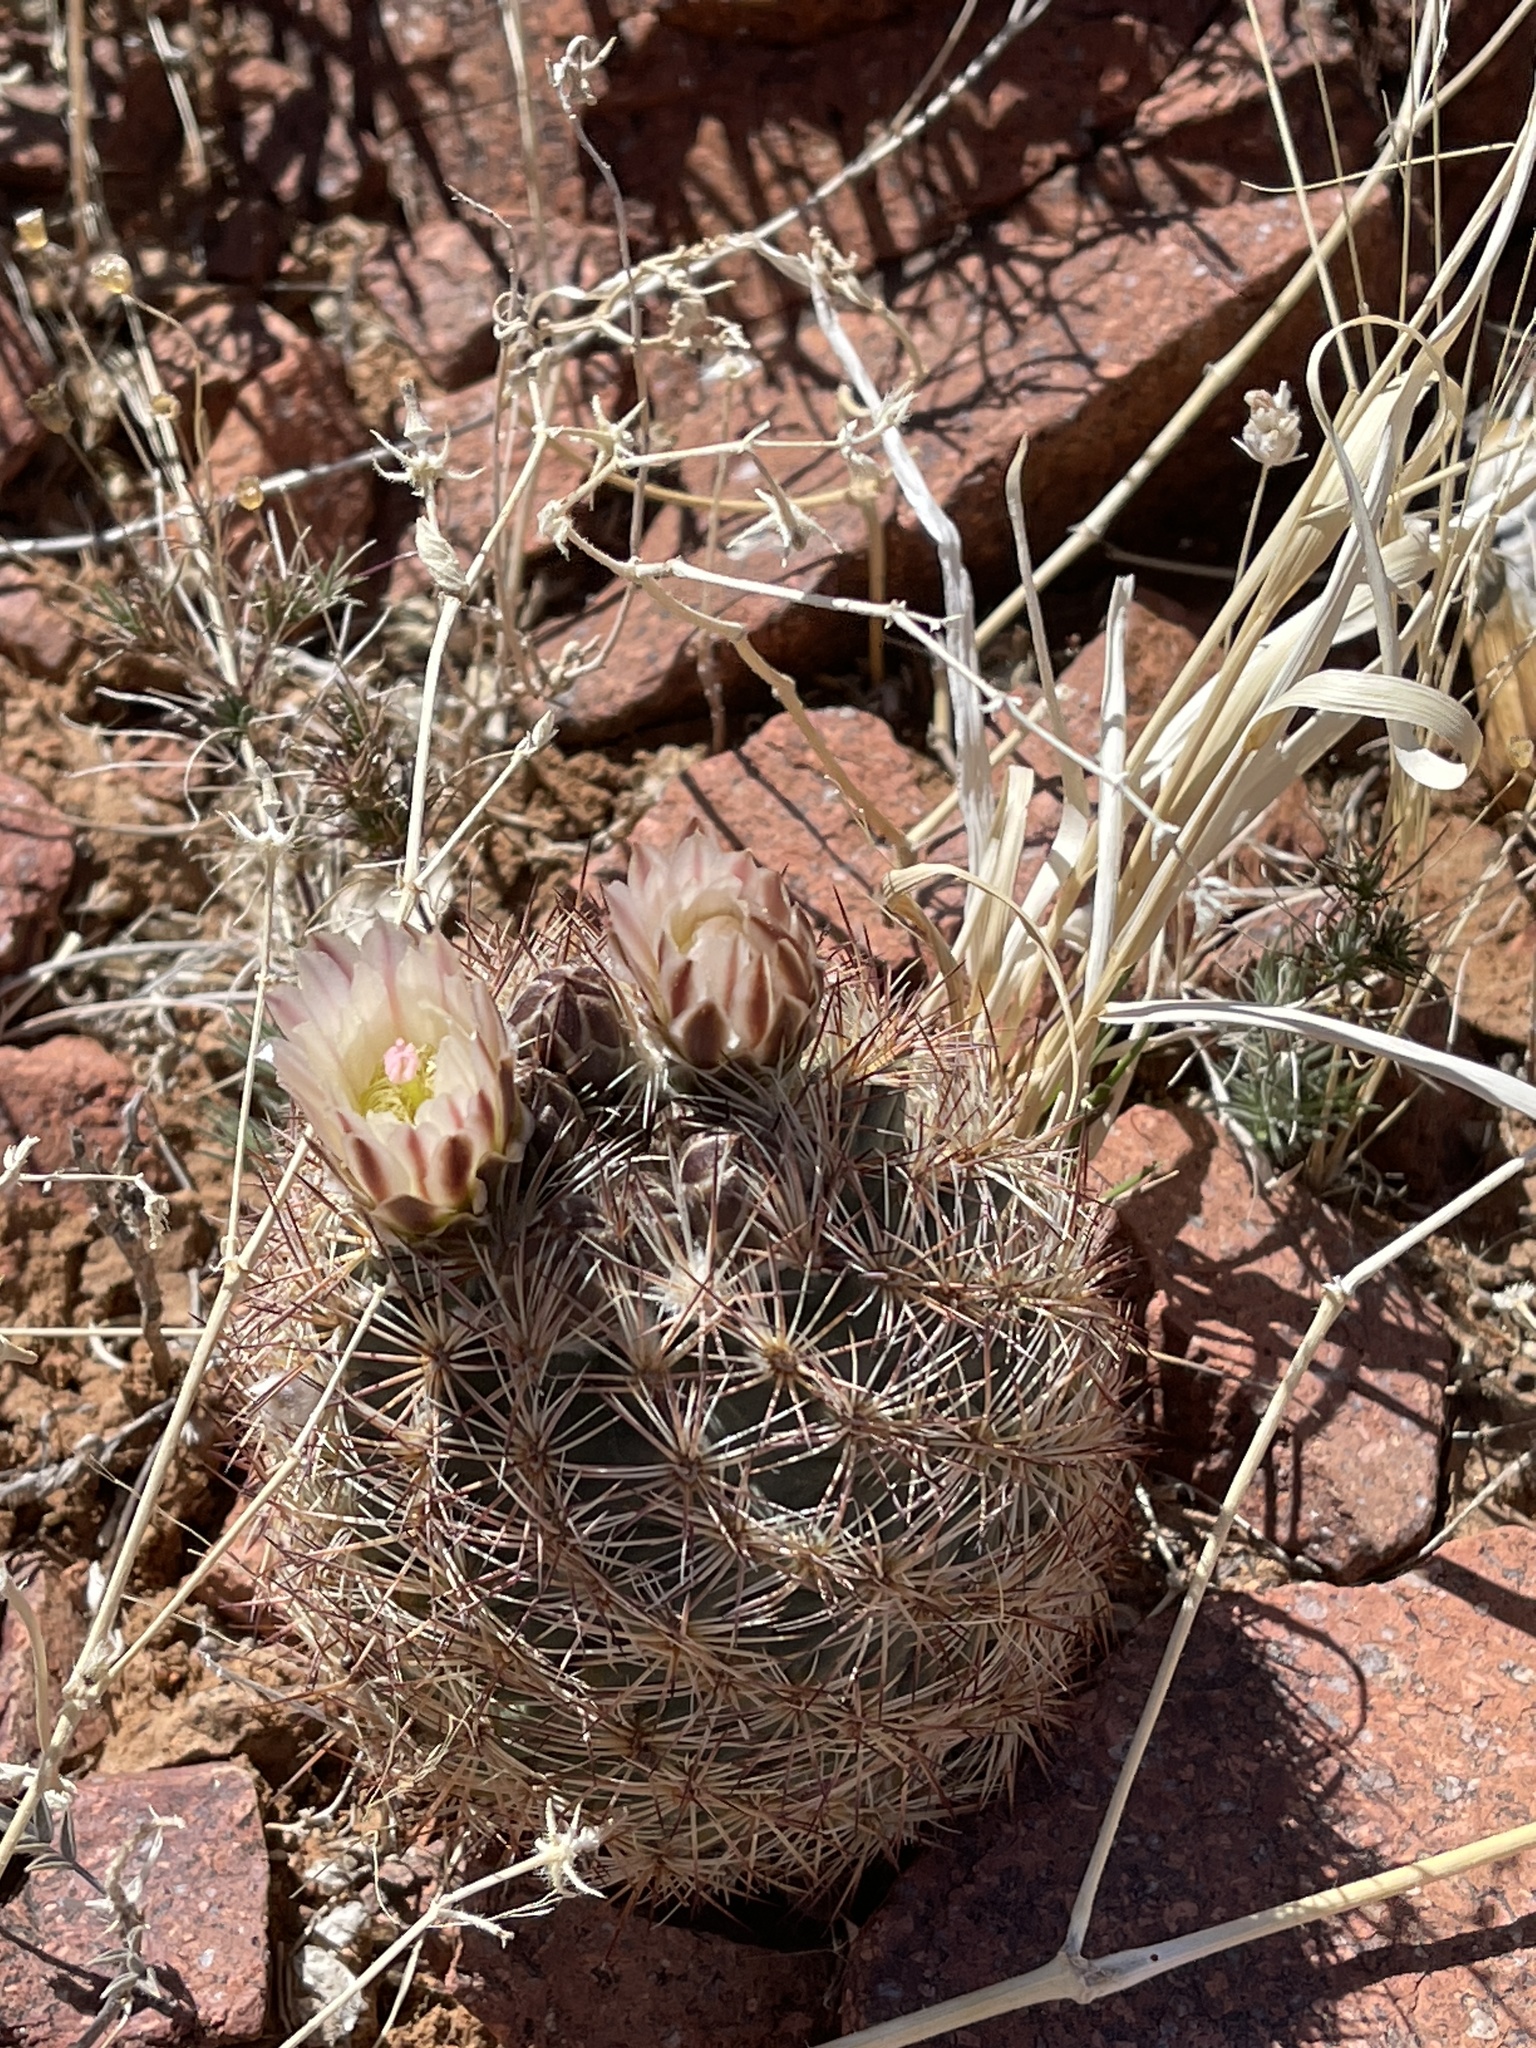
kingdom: Plantae
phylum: Tracheophyta
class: Magnoliopsida
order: Caryophyllales
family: Cactaceae
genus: Sclerocactus
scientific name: Sclerocactus intertextus
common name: White fish-hook cactus
